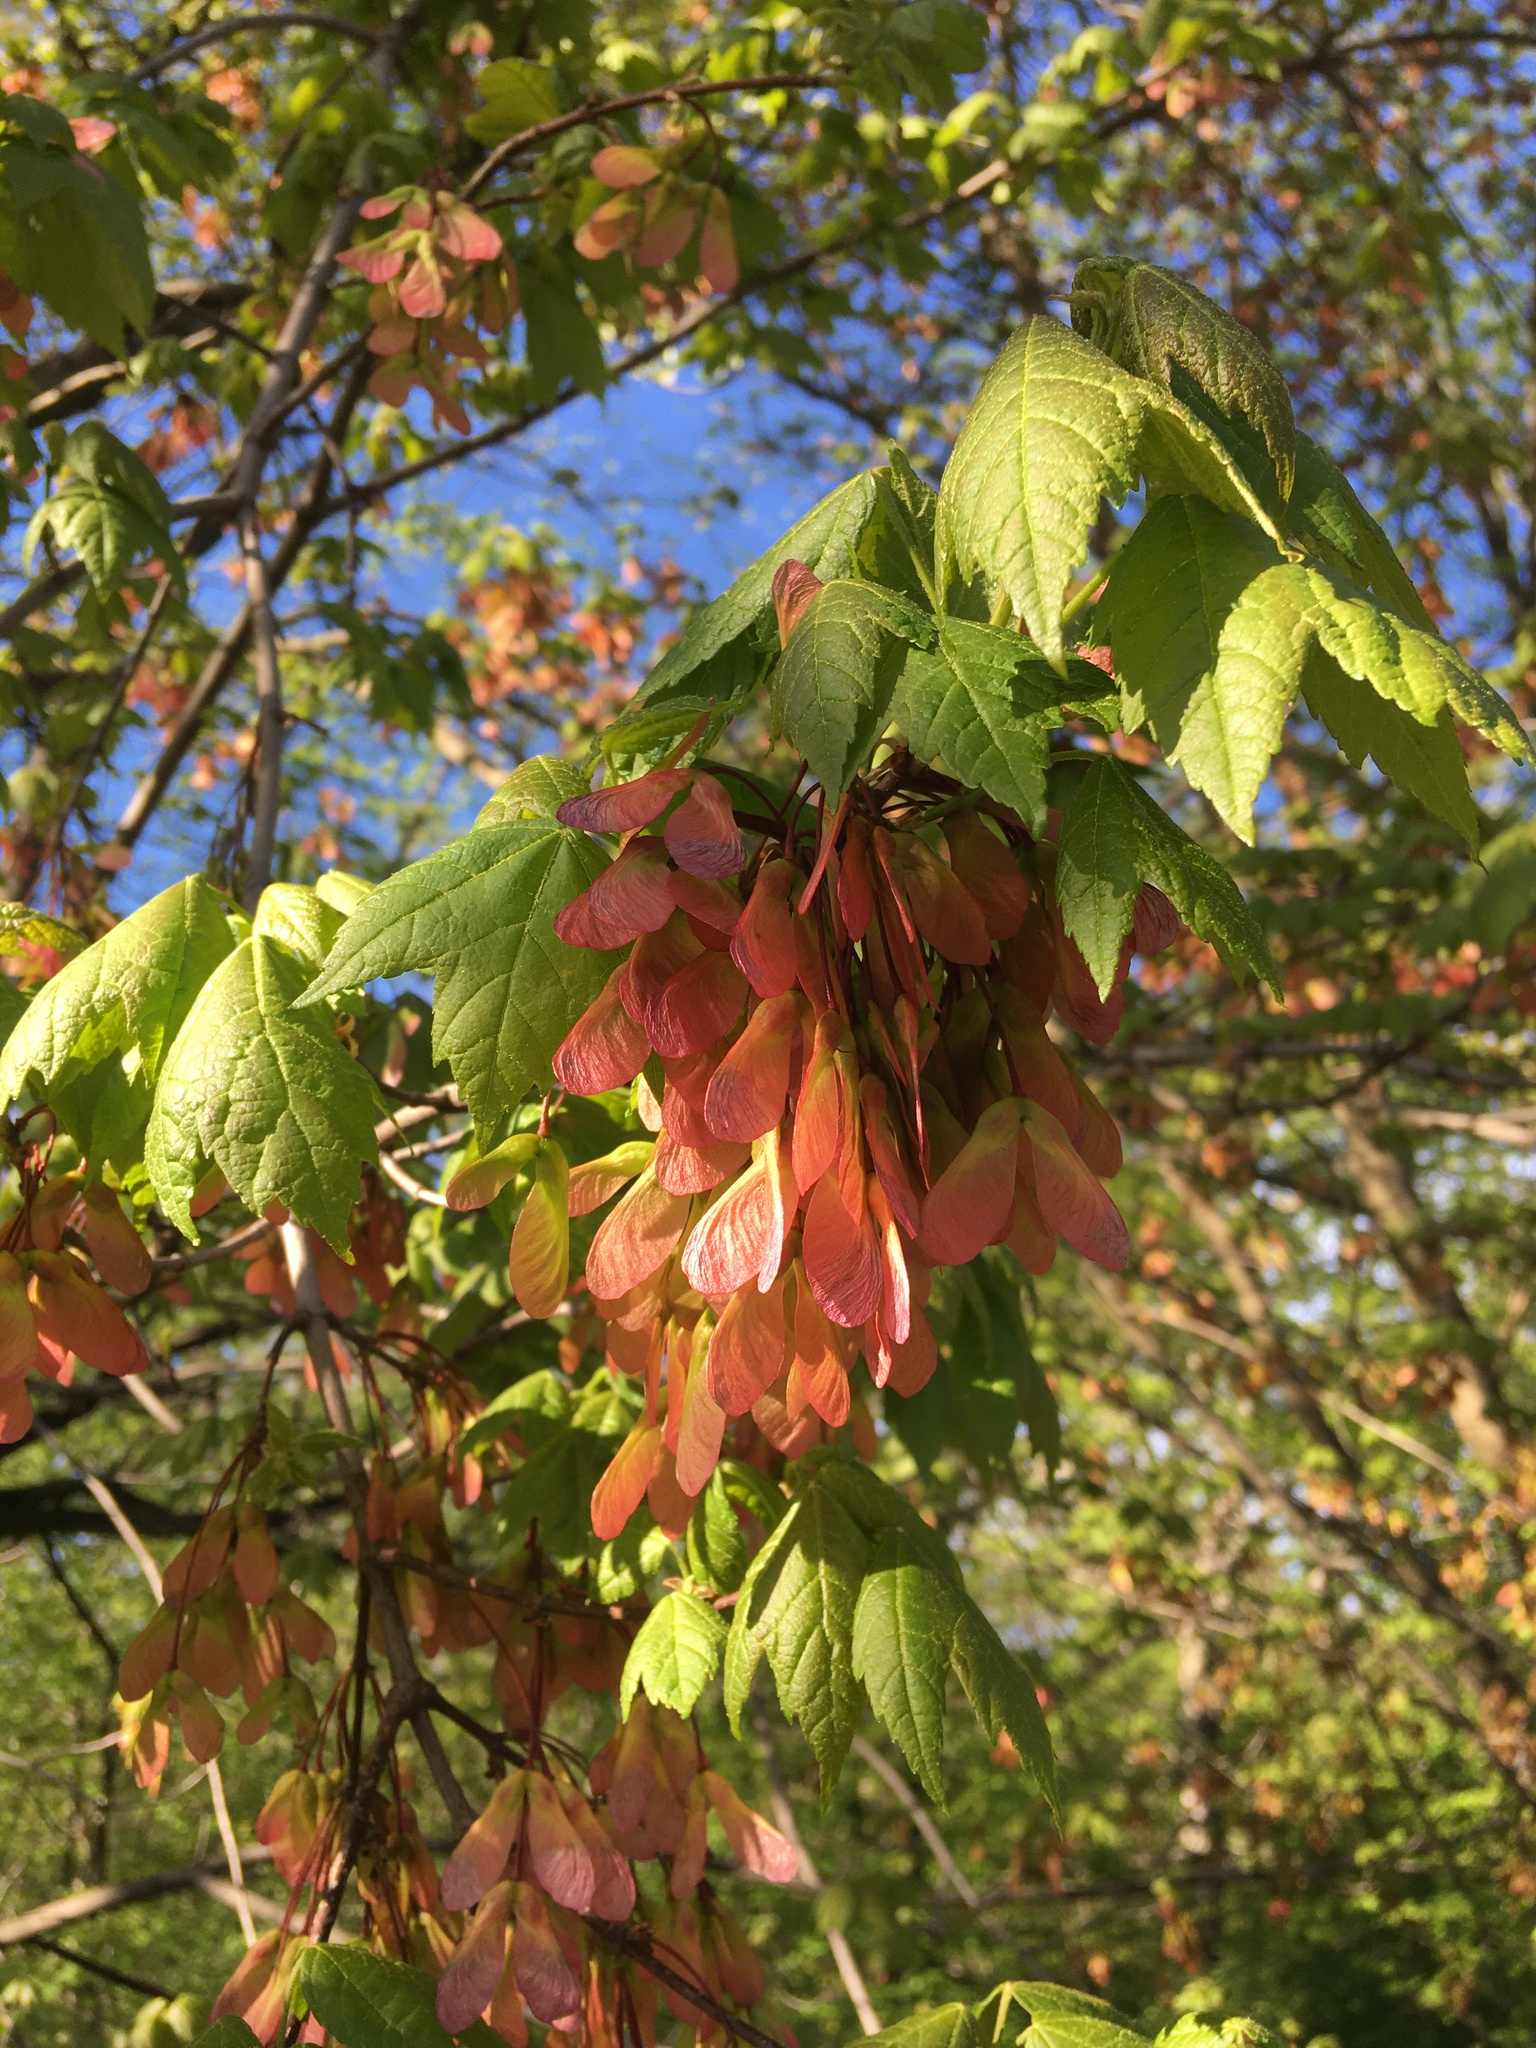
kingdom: Plantae
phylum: Tracheophyta
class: Magnoliopsida
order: Sapindales
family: Sapindaceae
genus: Acer
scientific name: Acer rubrum
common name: Red maple
